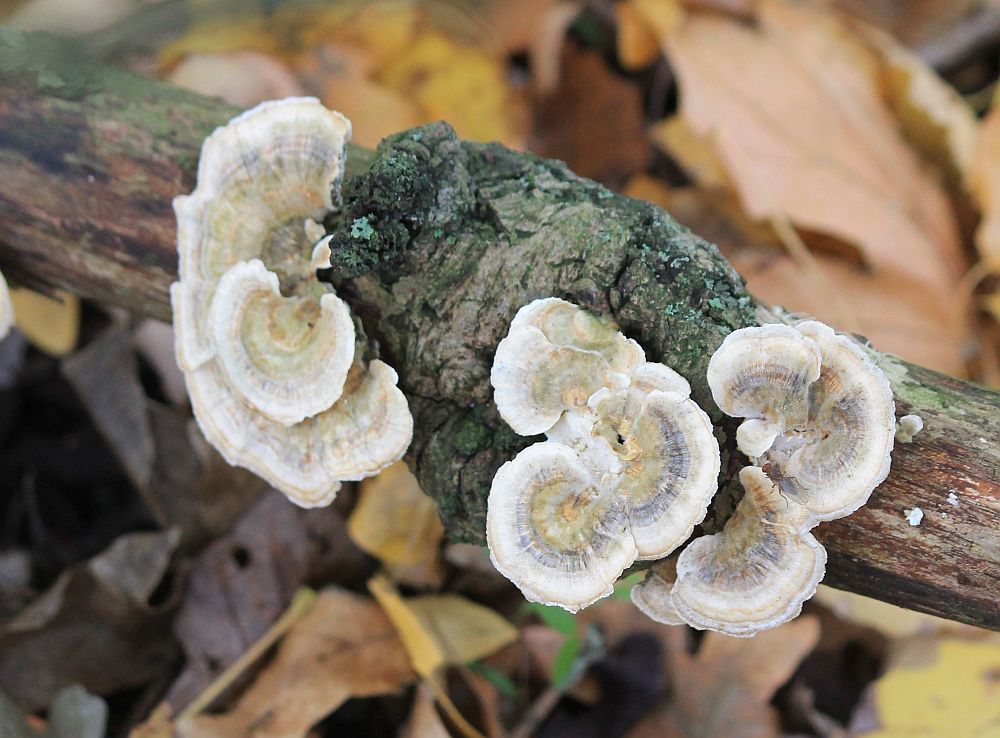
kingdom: Fungi
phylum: Basidiomycota
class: Agaricomycetes
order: Polyporales
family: Polyporaceae
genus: Trametes
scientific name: Trametes versicolor
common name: Turkeytail
